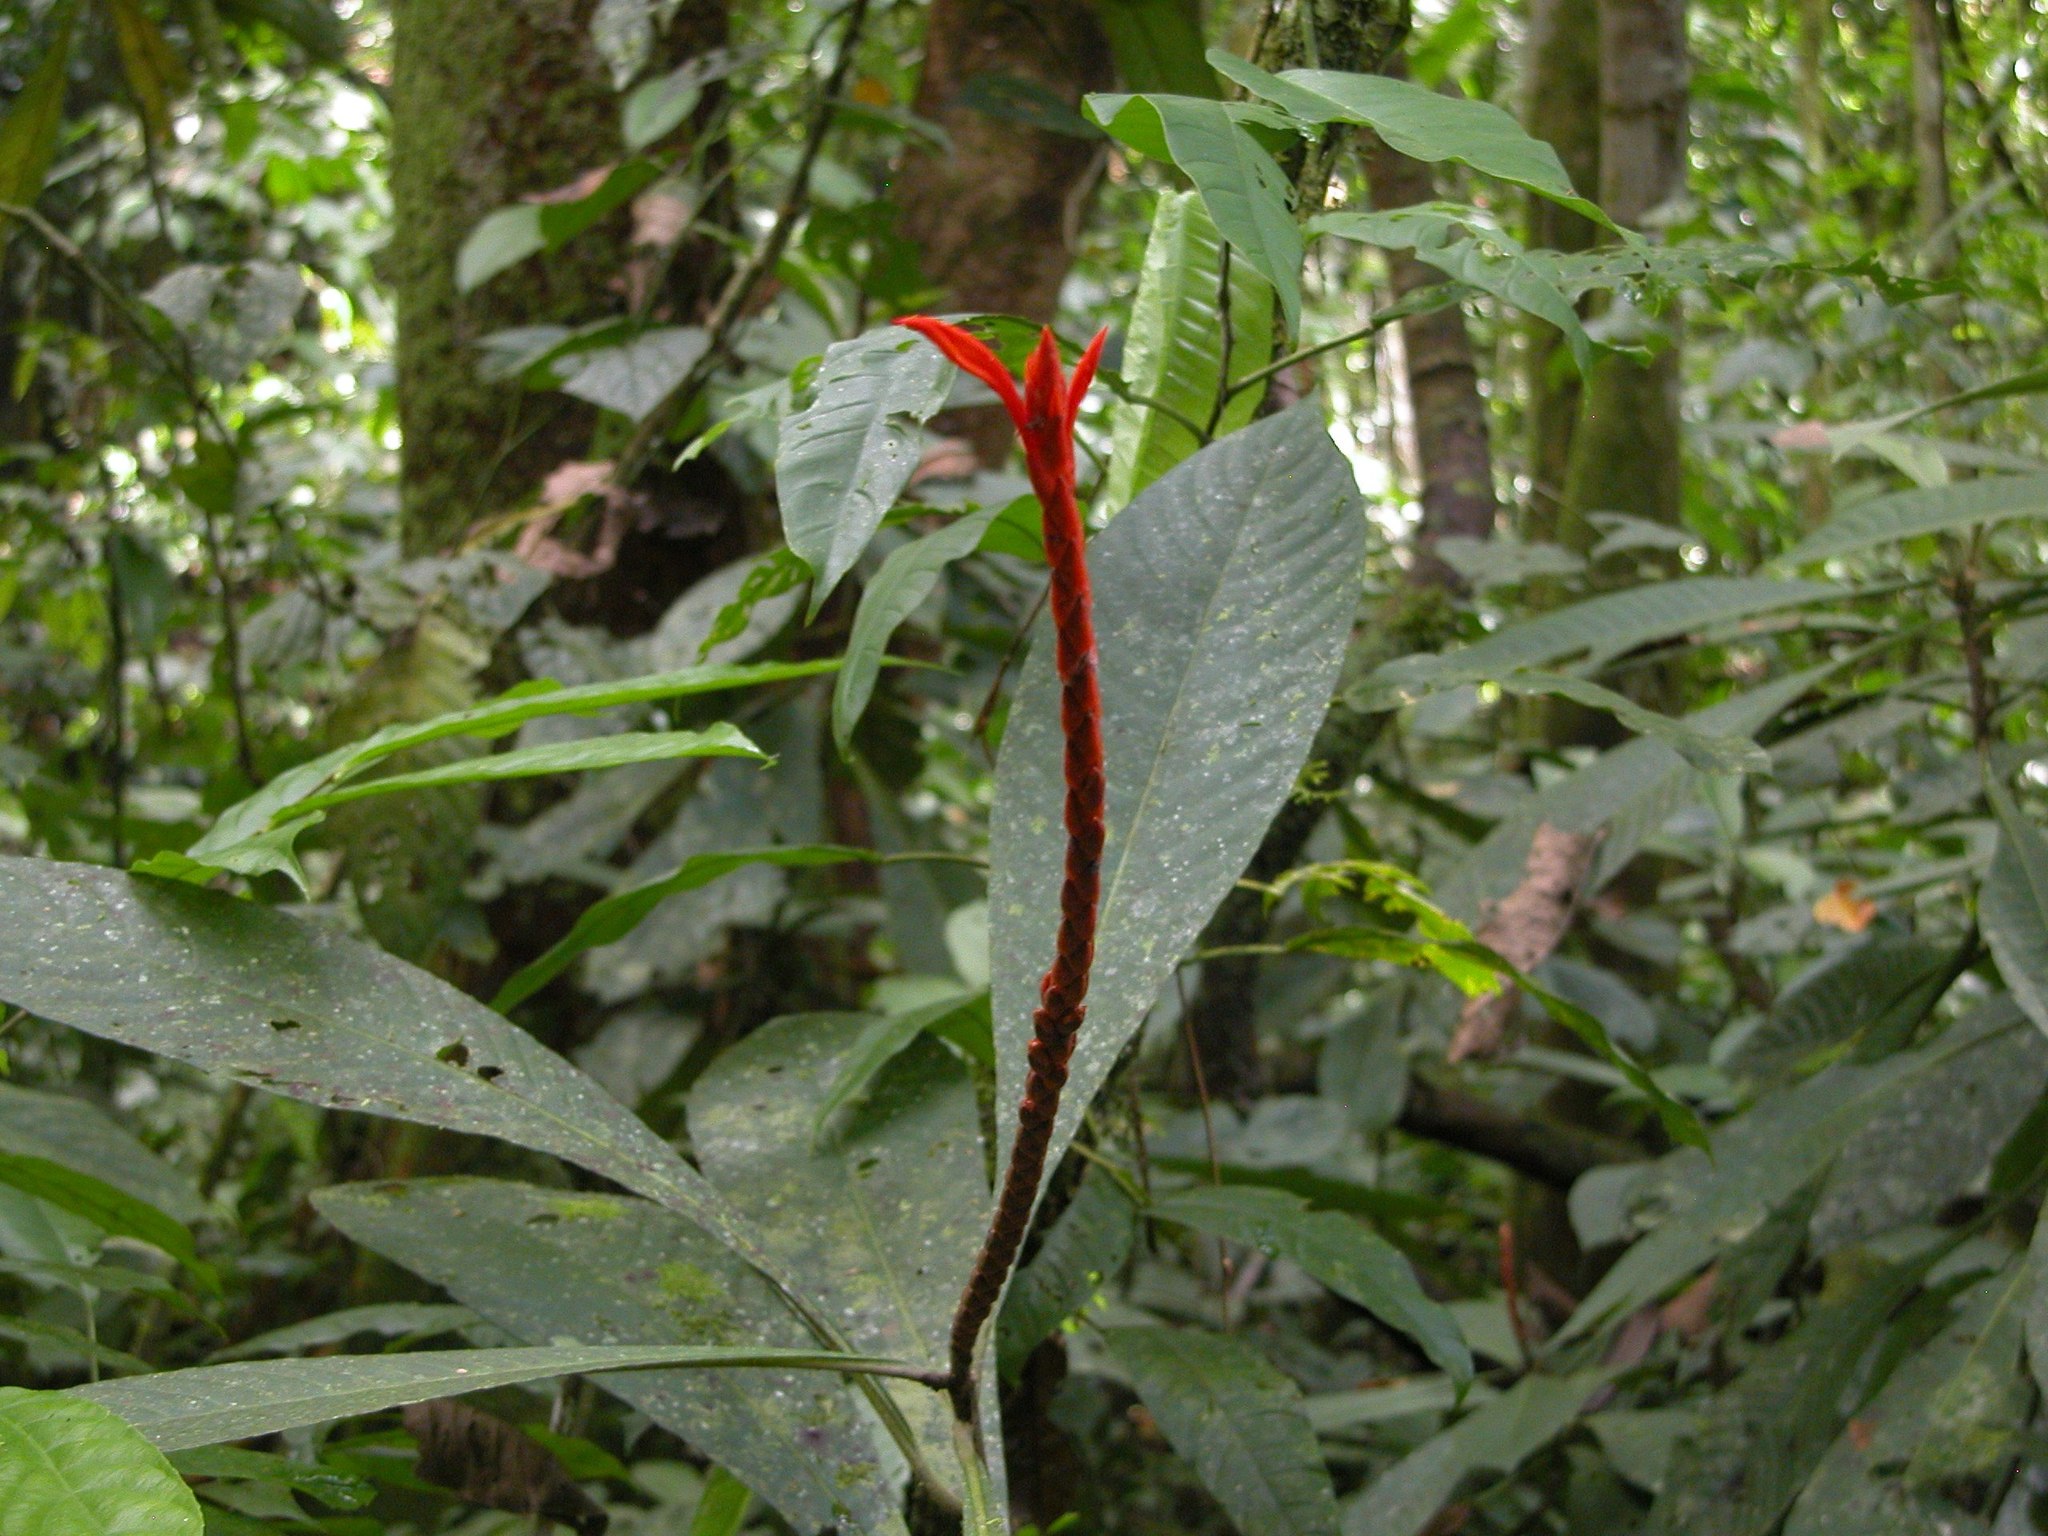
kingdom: Plantae
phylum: Tracheophyta
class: Magnoliopsida
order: Lamiales
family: Acanthaceae
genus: Aphelandra
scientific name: Aphelandra lingua-bovis
